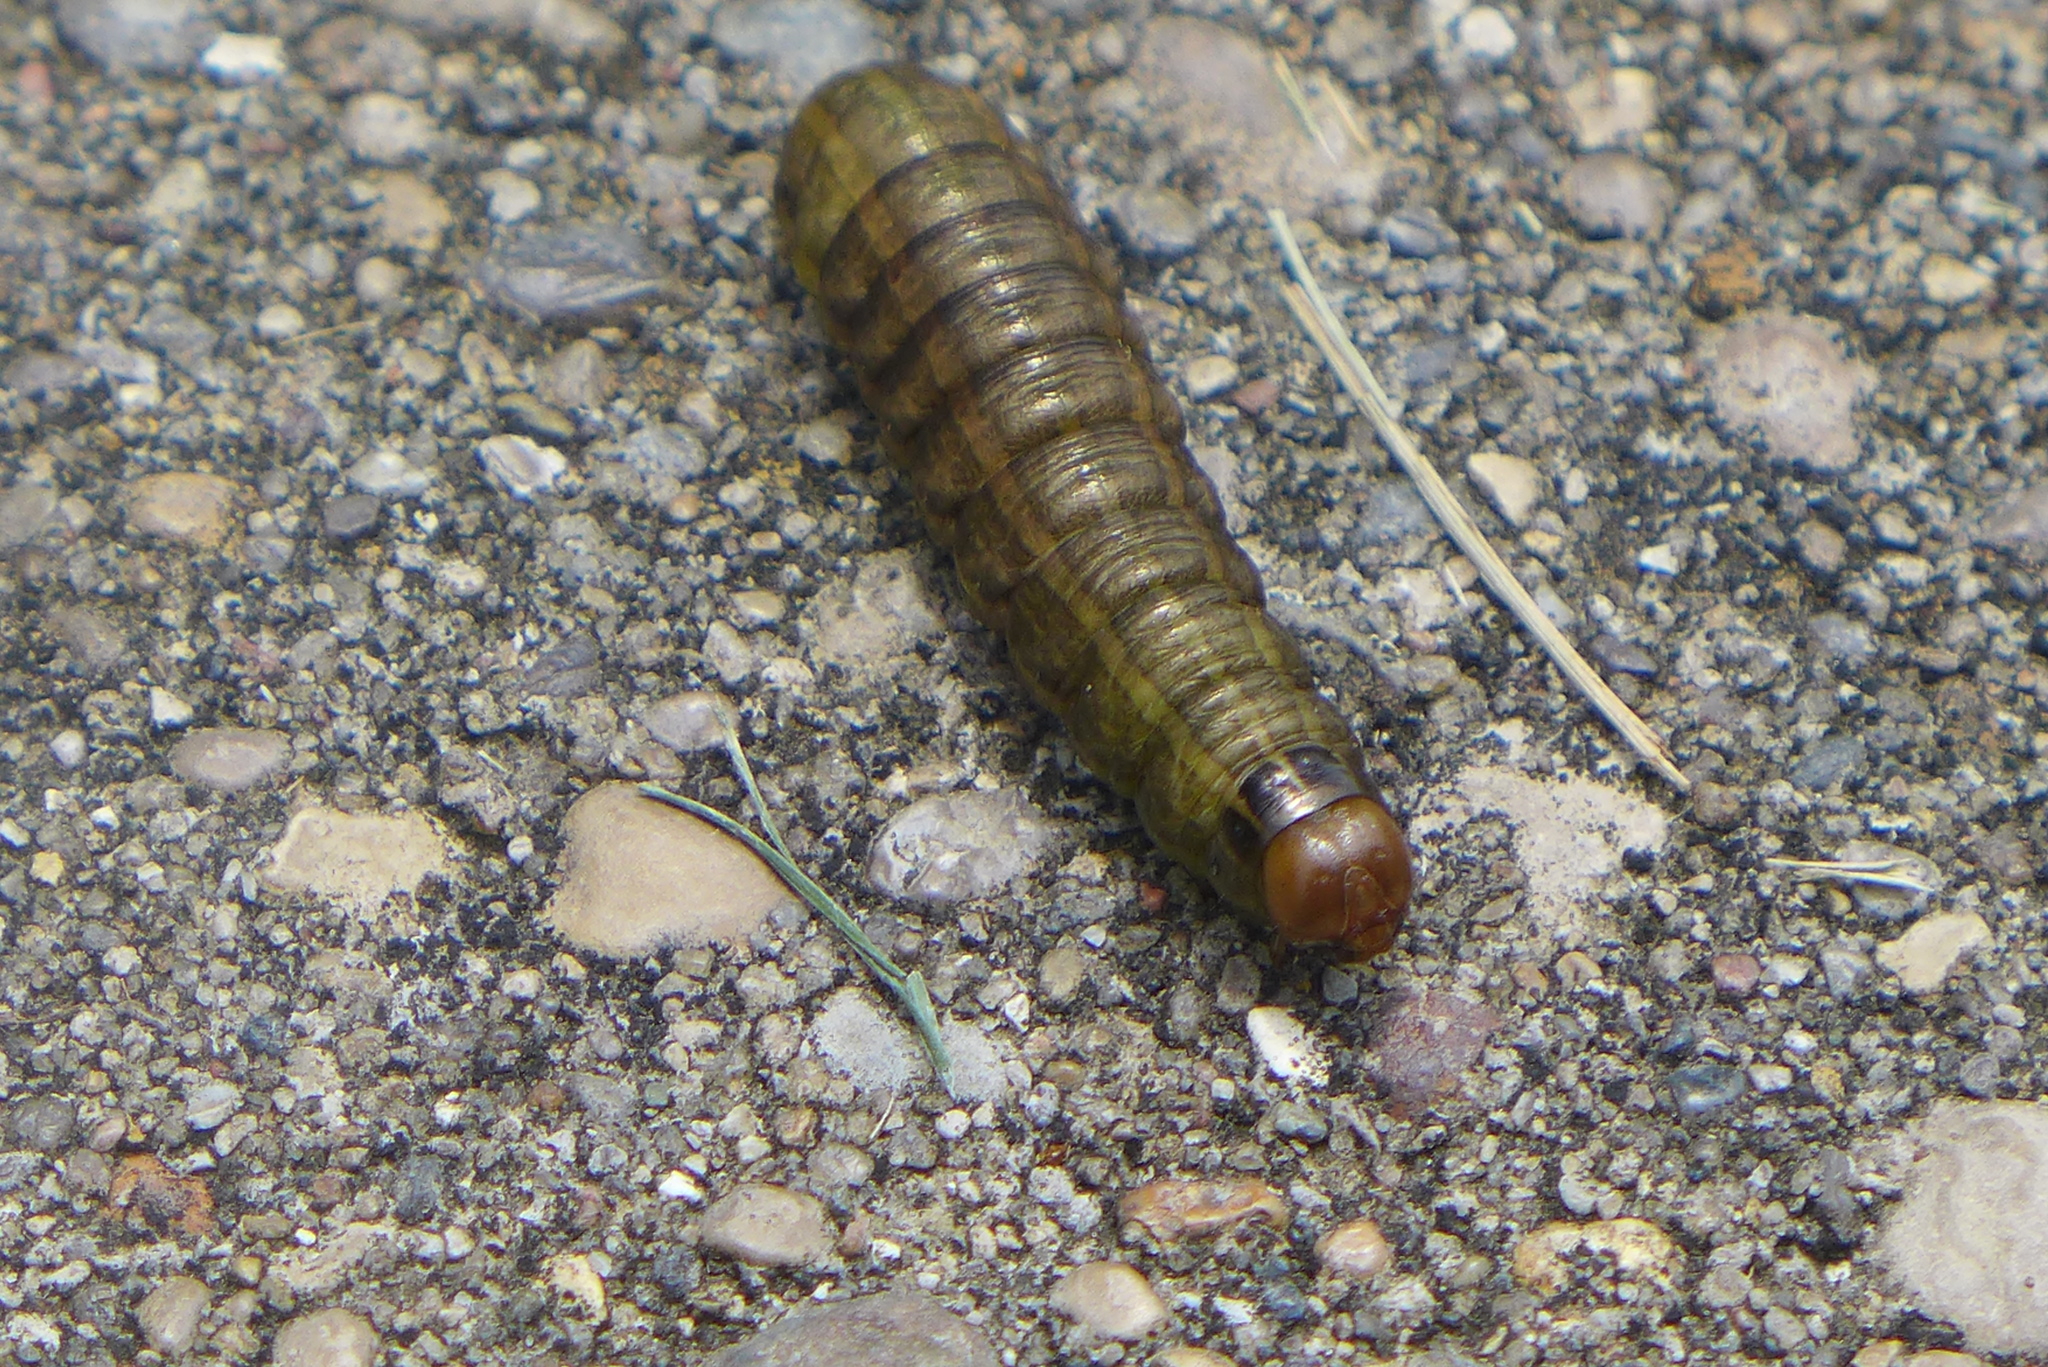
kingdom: Animalia
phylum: Arthropoda
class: Insecta
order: Lepidoptera
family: Noctuidae
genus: Nephelodes
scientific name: Nephelodes minians
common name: Bronzed cutworm
